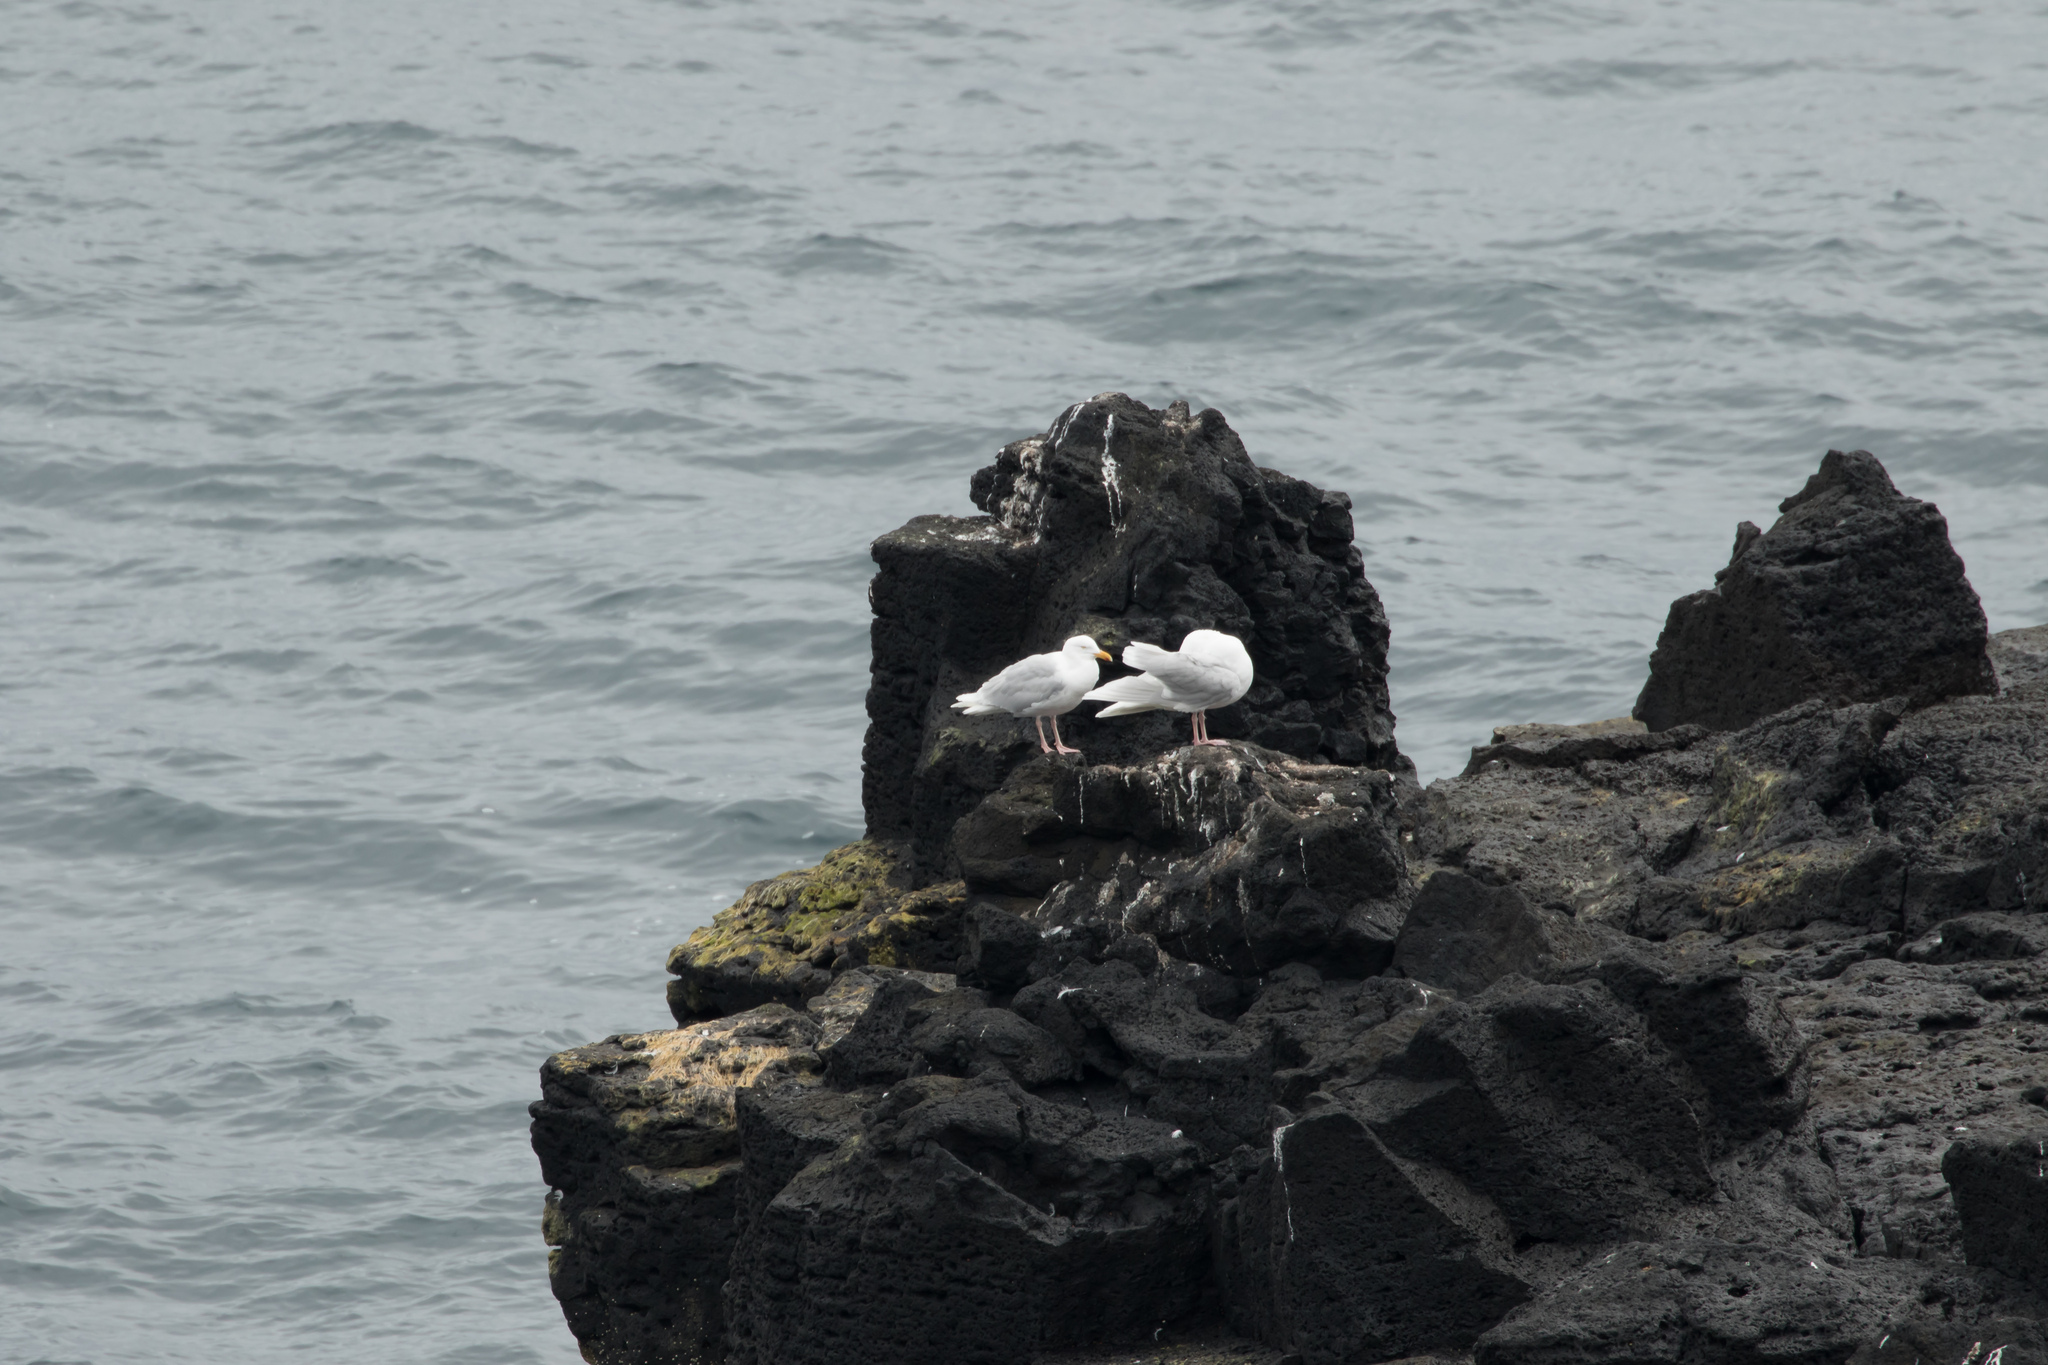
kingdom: Animalia
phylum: Chordata
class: Aves
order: Charadriiformes
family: Laridae
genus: Larus
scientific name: Larus hyperboreus
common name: Glaucous gull
